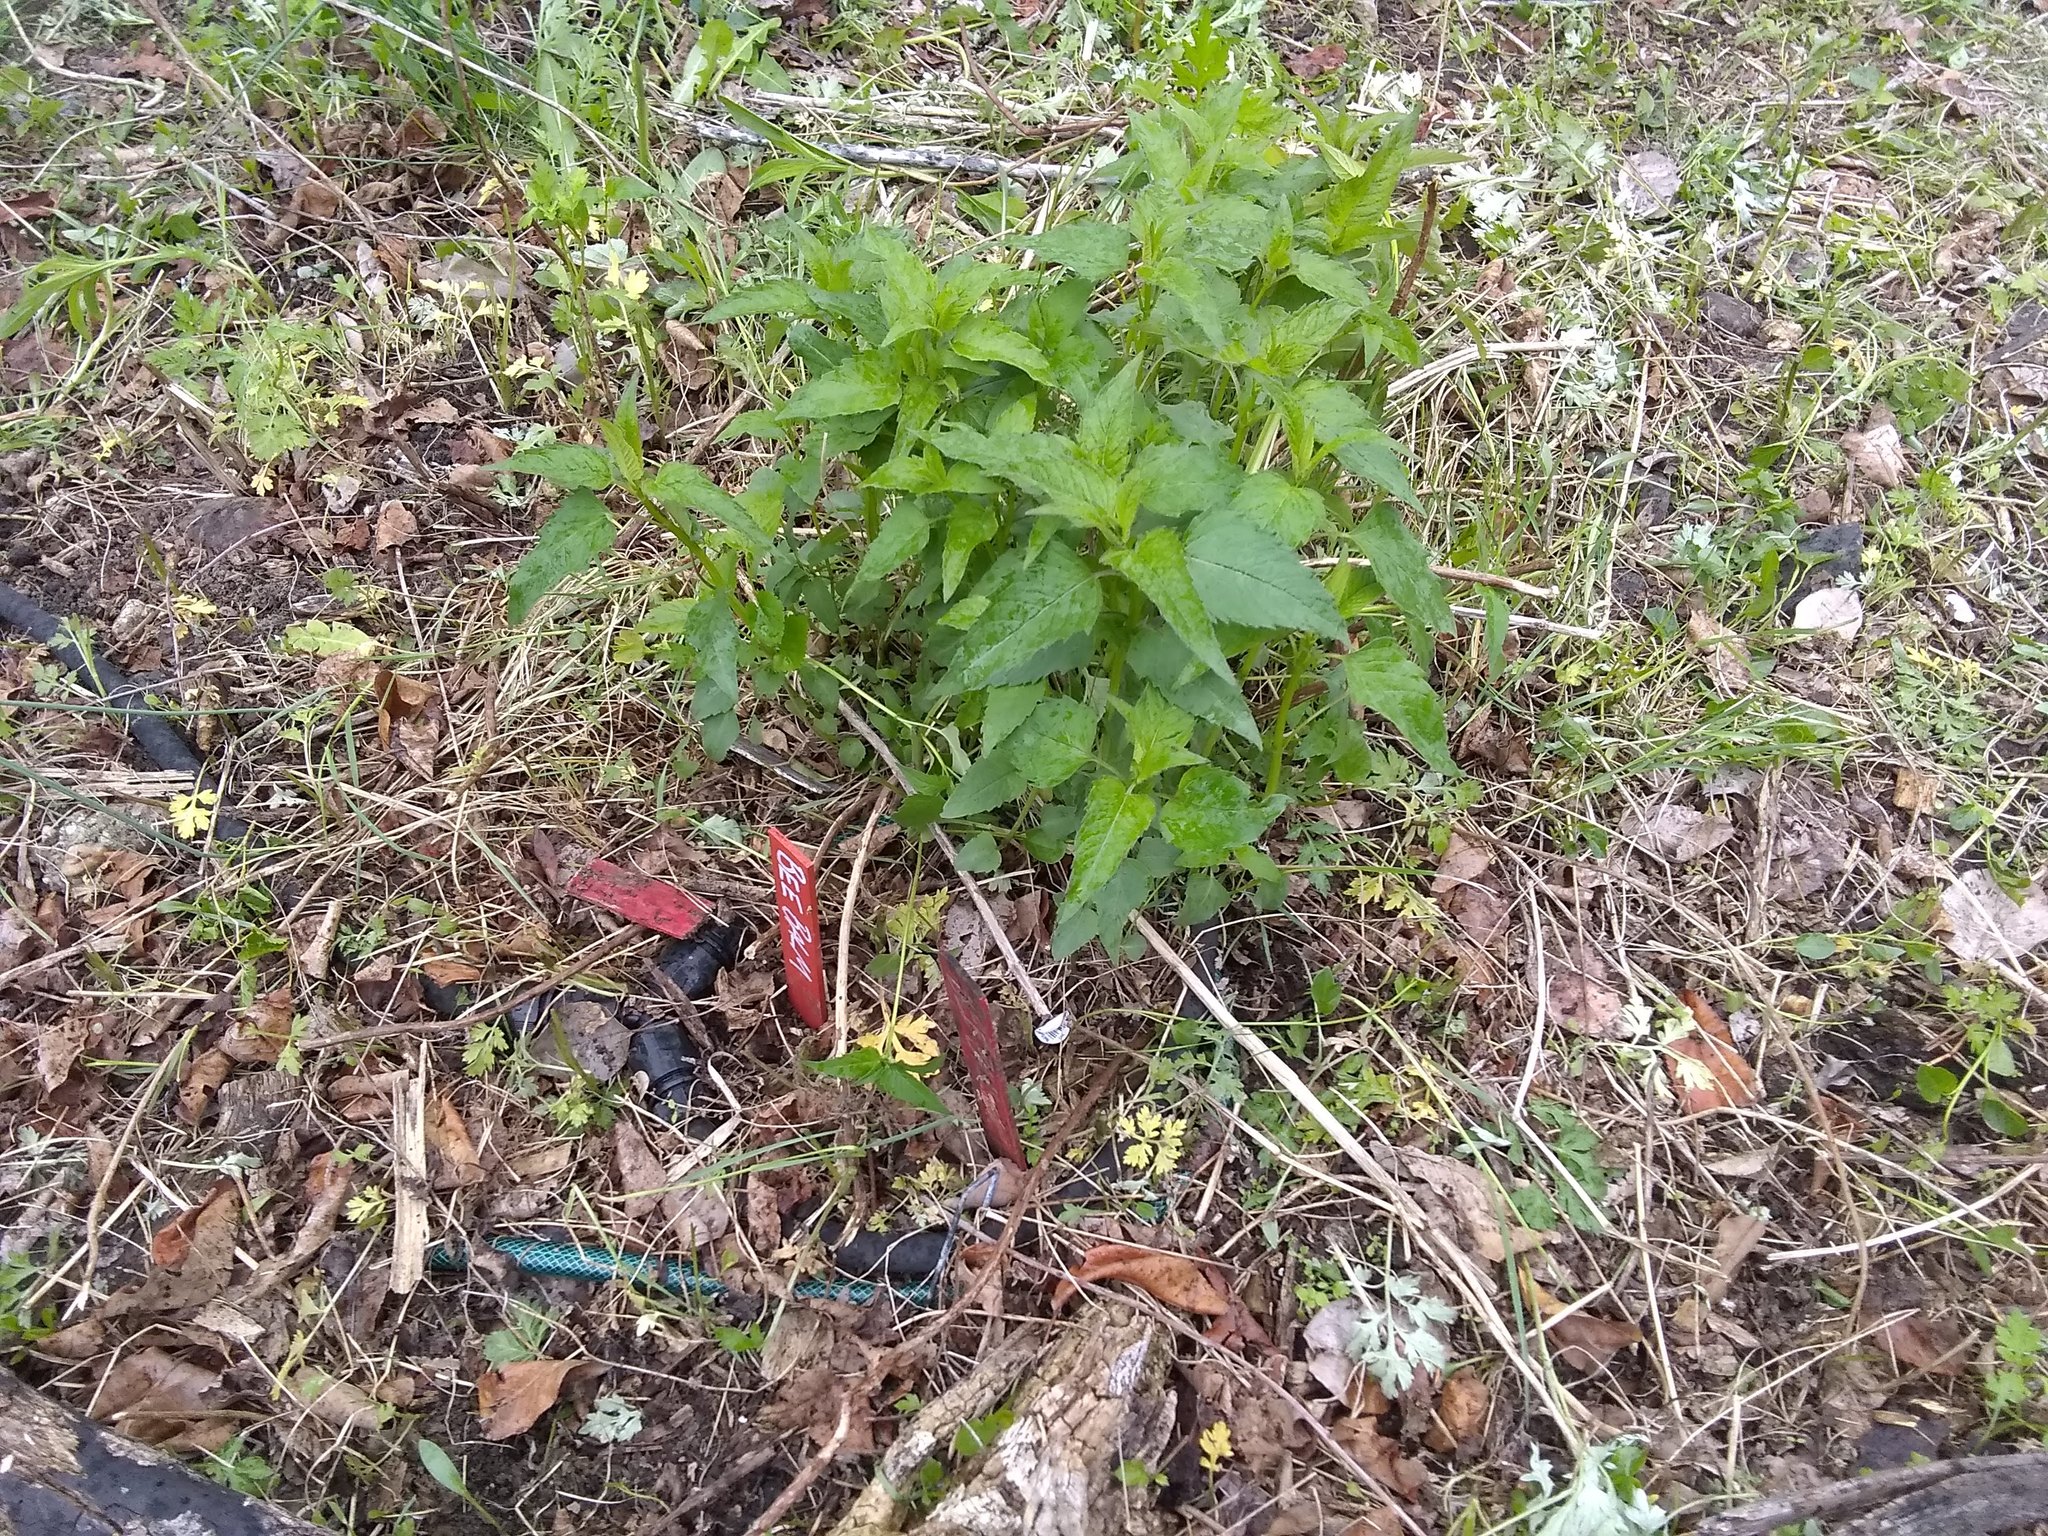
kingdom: Plantae
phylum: Tracheophyta
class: Magnoliopsida
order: Lamiales
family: Lamiaceae
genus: Monarda
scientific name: Monarda fistulosa
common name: Purple beebalm
